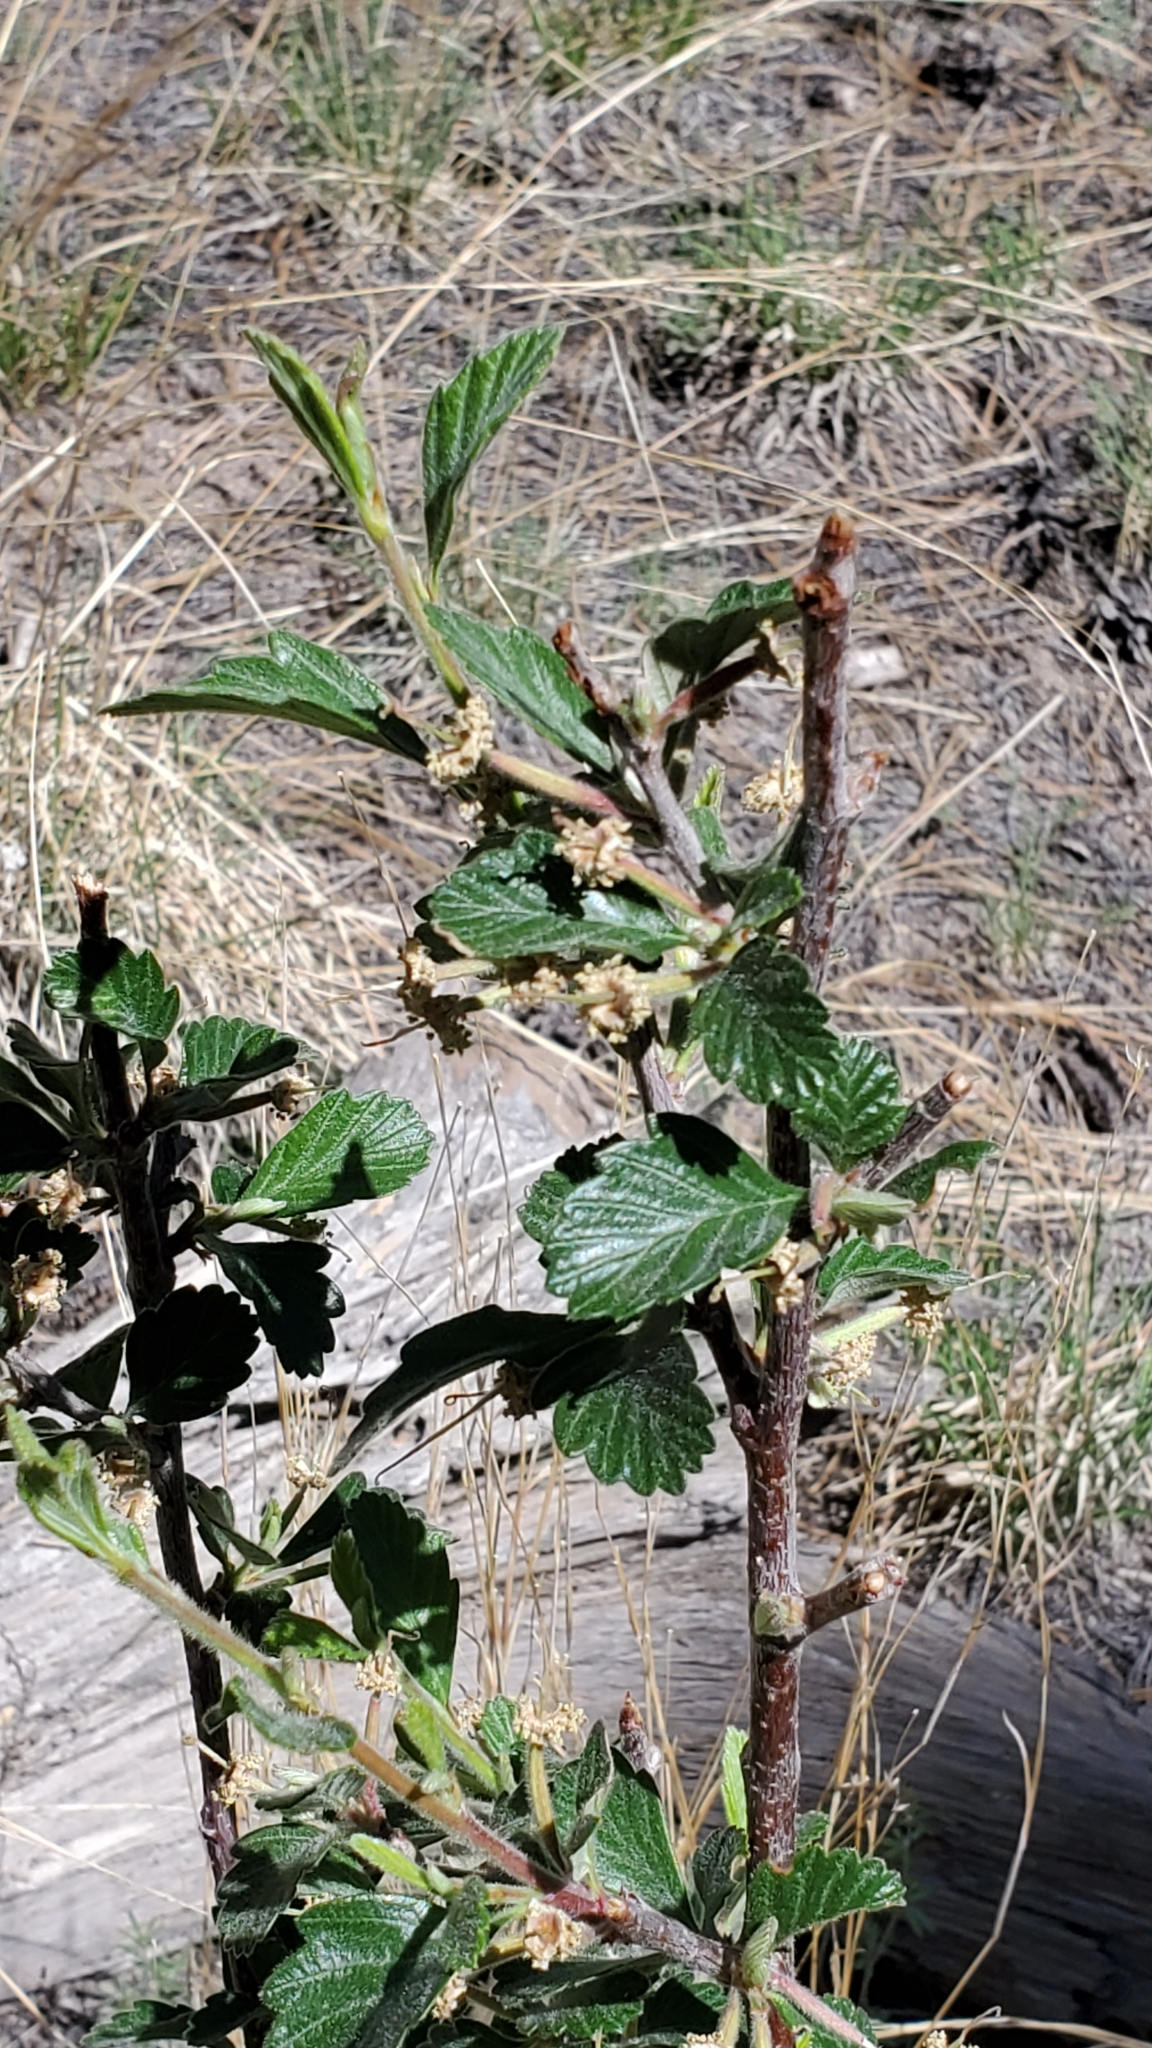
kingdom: Plantae
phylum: Tracheophyta
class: Magnoliopsida
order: Rosales
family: Rosaceae
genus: Cercocarpus
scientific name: Cercocarpus montanus
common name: Alder-leaf cercocarpus
